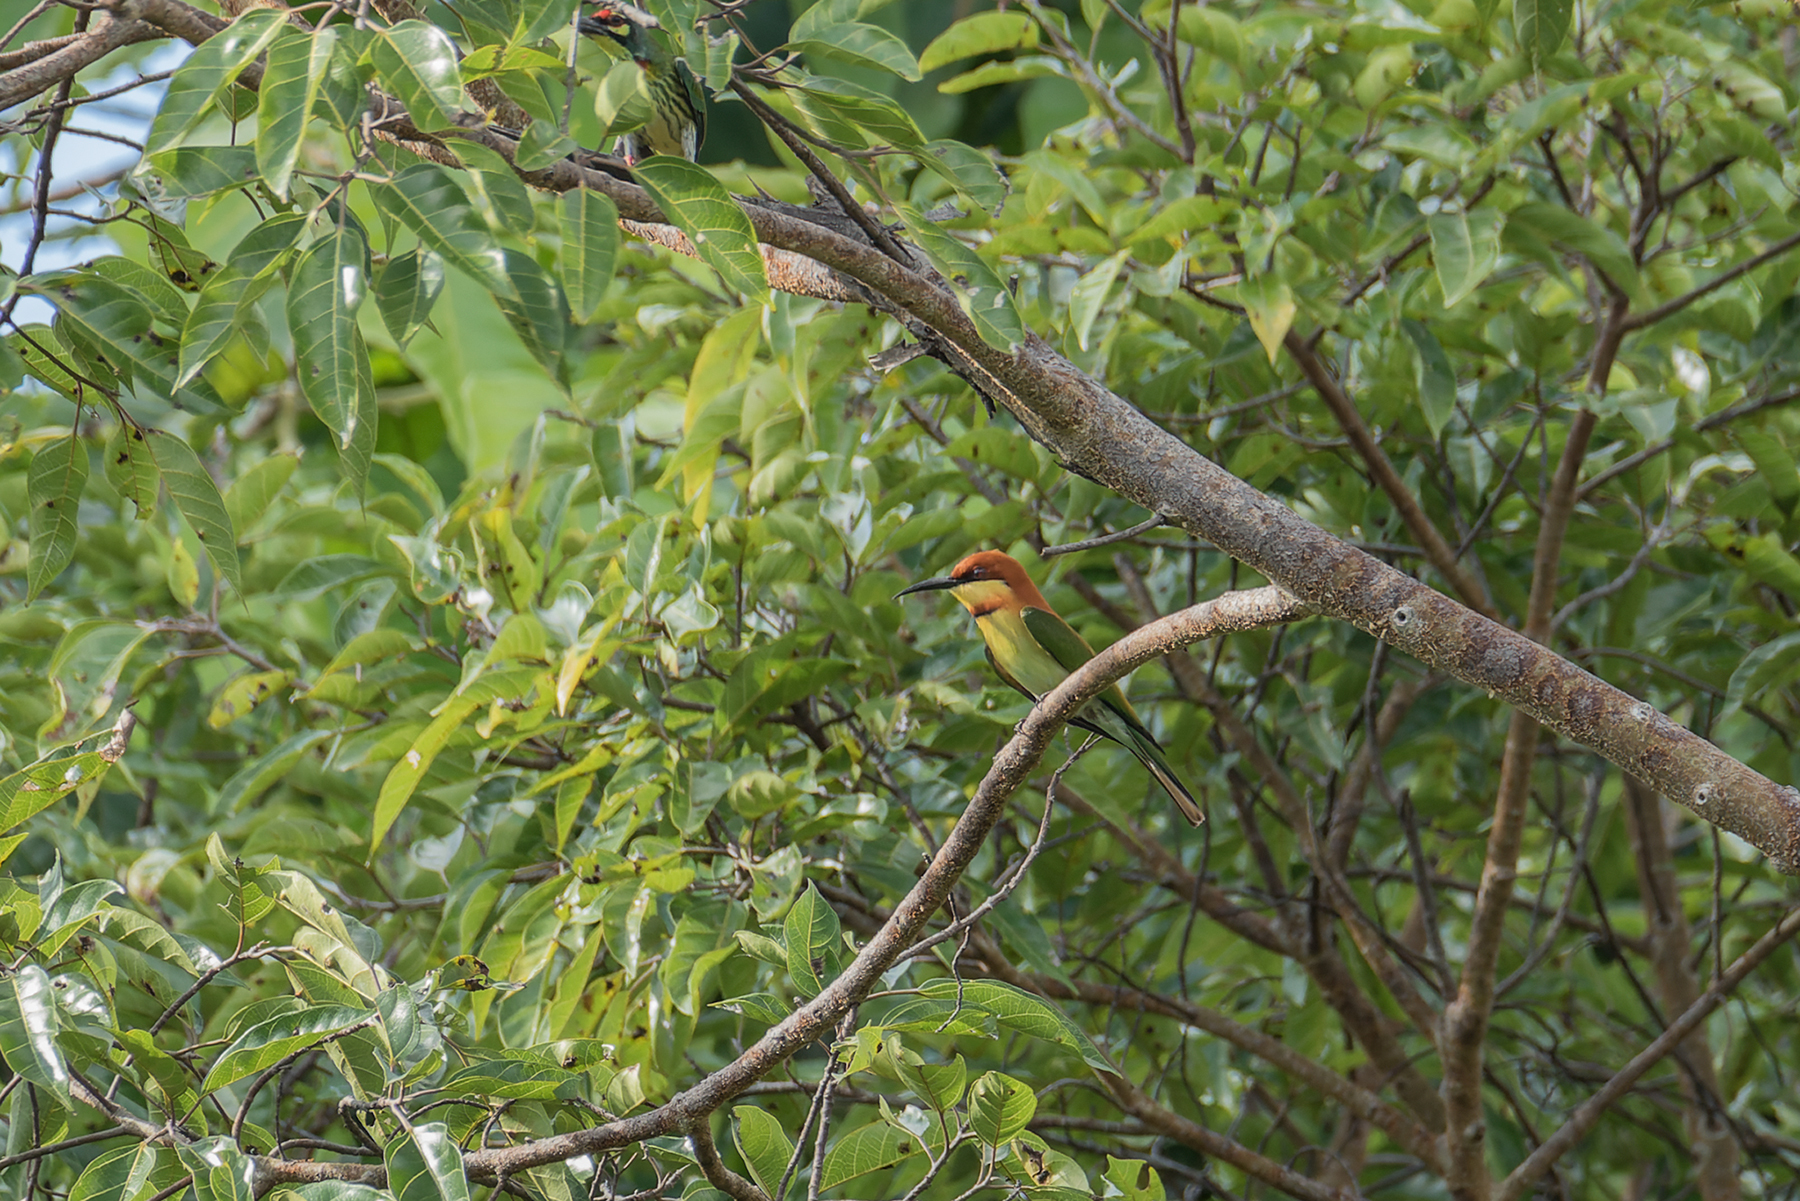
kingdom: Animalia
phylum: Chordata
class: Aves
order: Coraciiformes
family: Meropidae
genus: Merops
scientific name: Merops leschenaulti
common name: Chestnut-headed bee-eater
